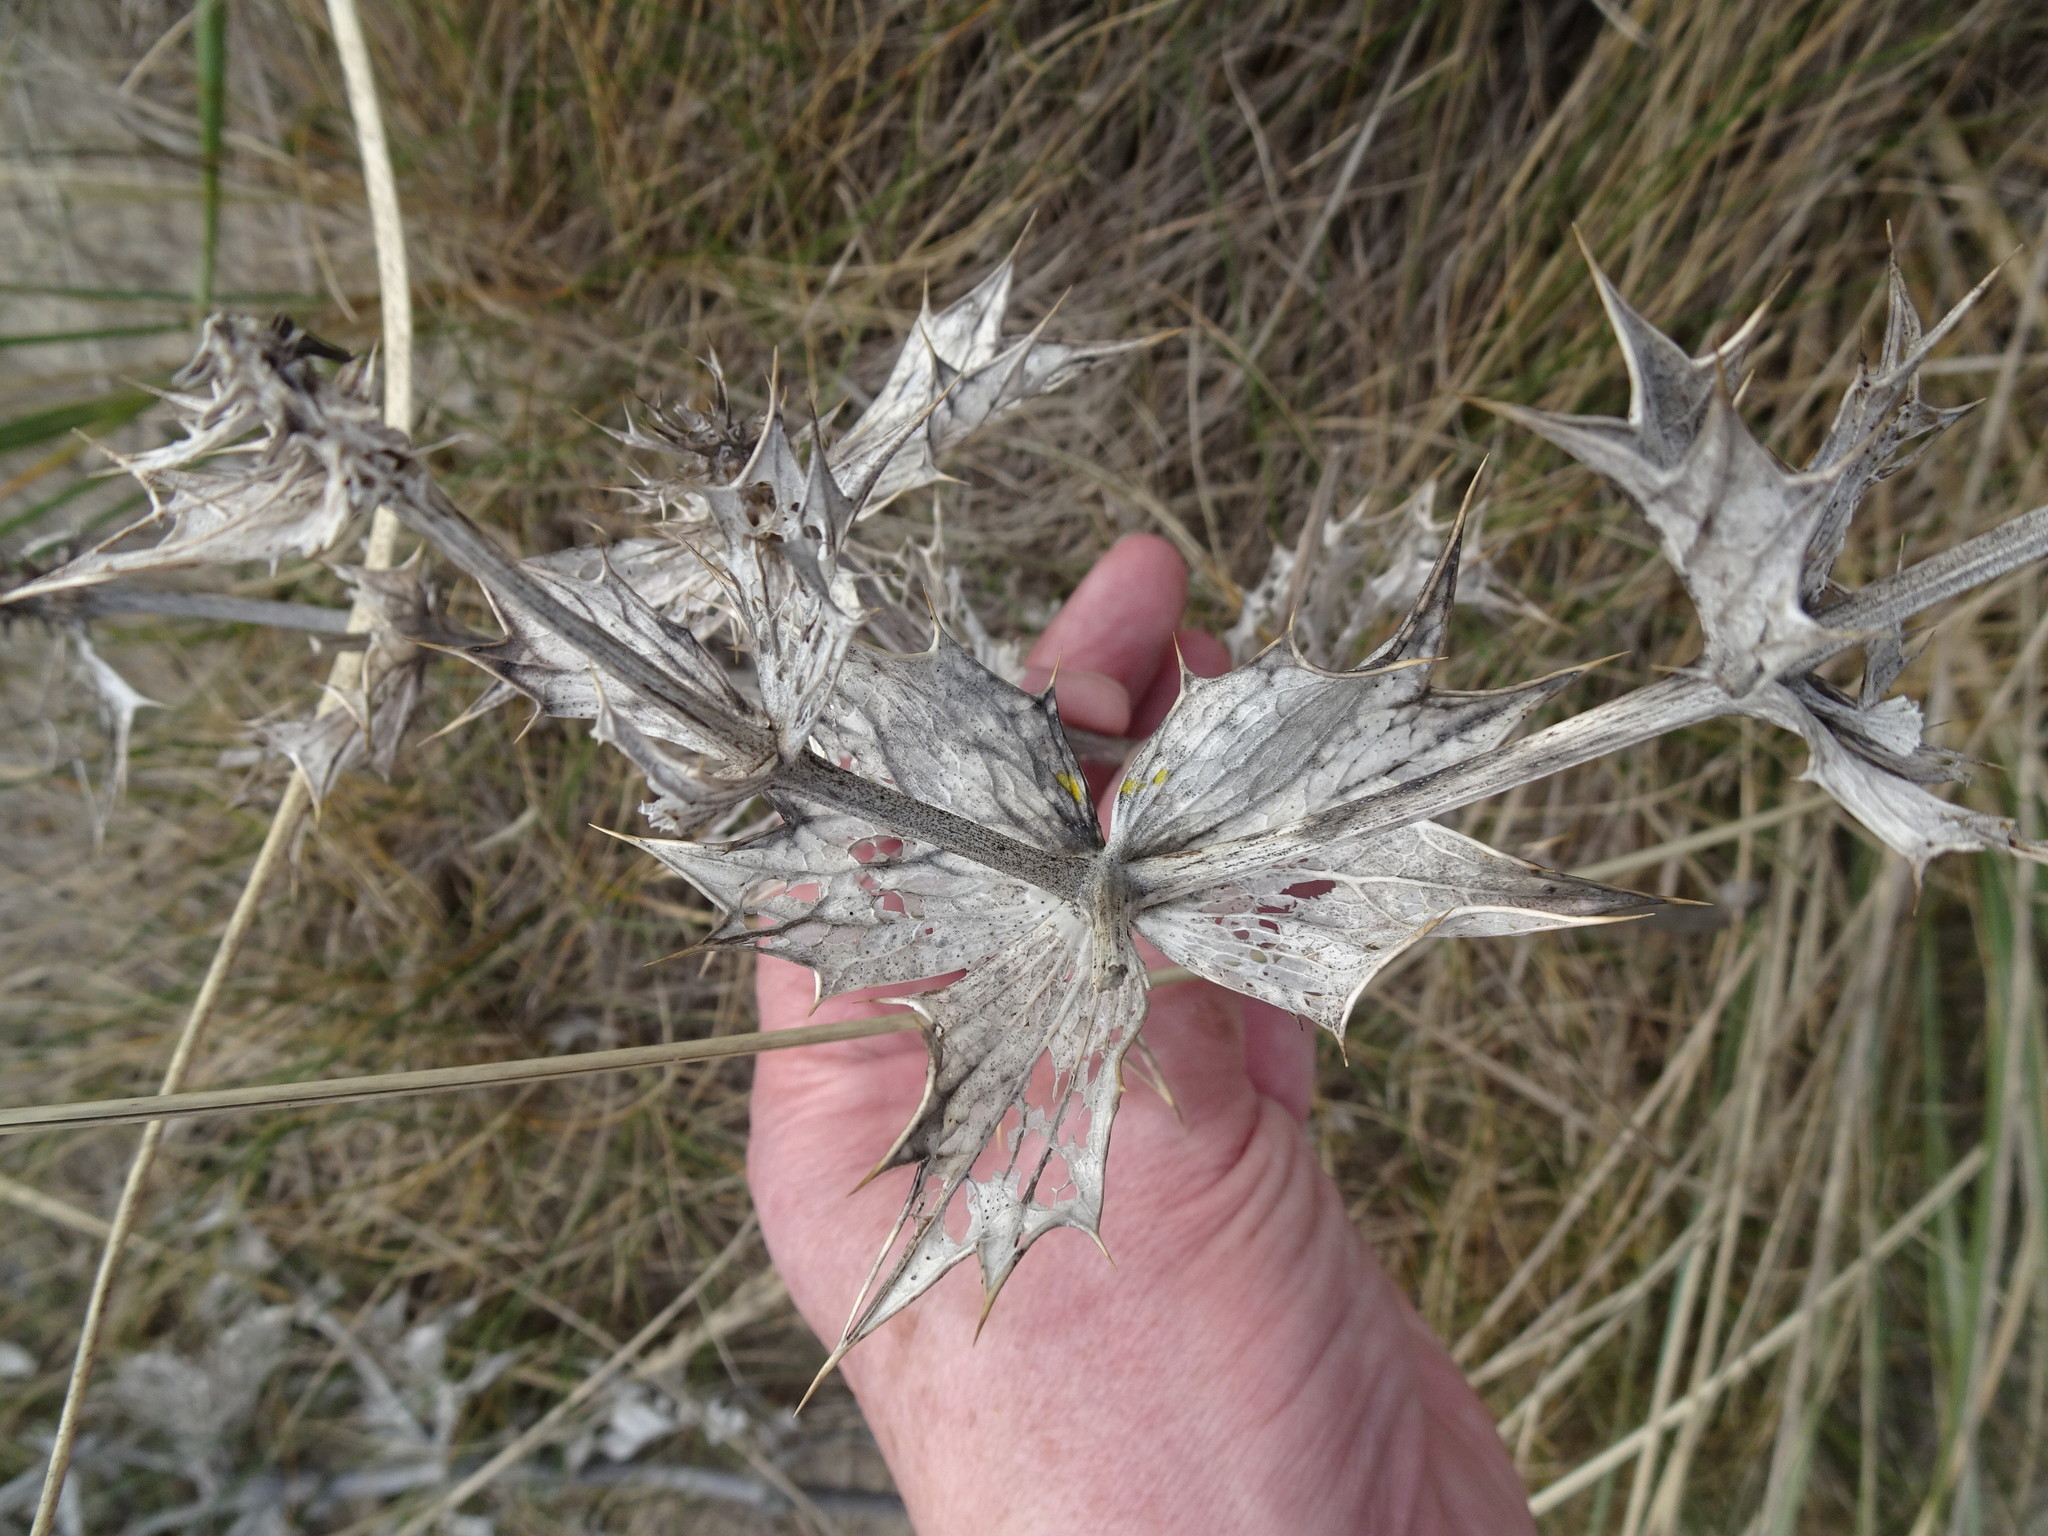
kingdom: Plantae
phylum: Tracheophyta
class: Magnoliopsida
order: Apiales
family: Apiaceae
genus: Eryngium
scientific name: Eryngium maritimum
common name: Sea-holly
